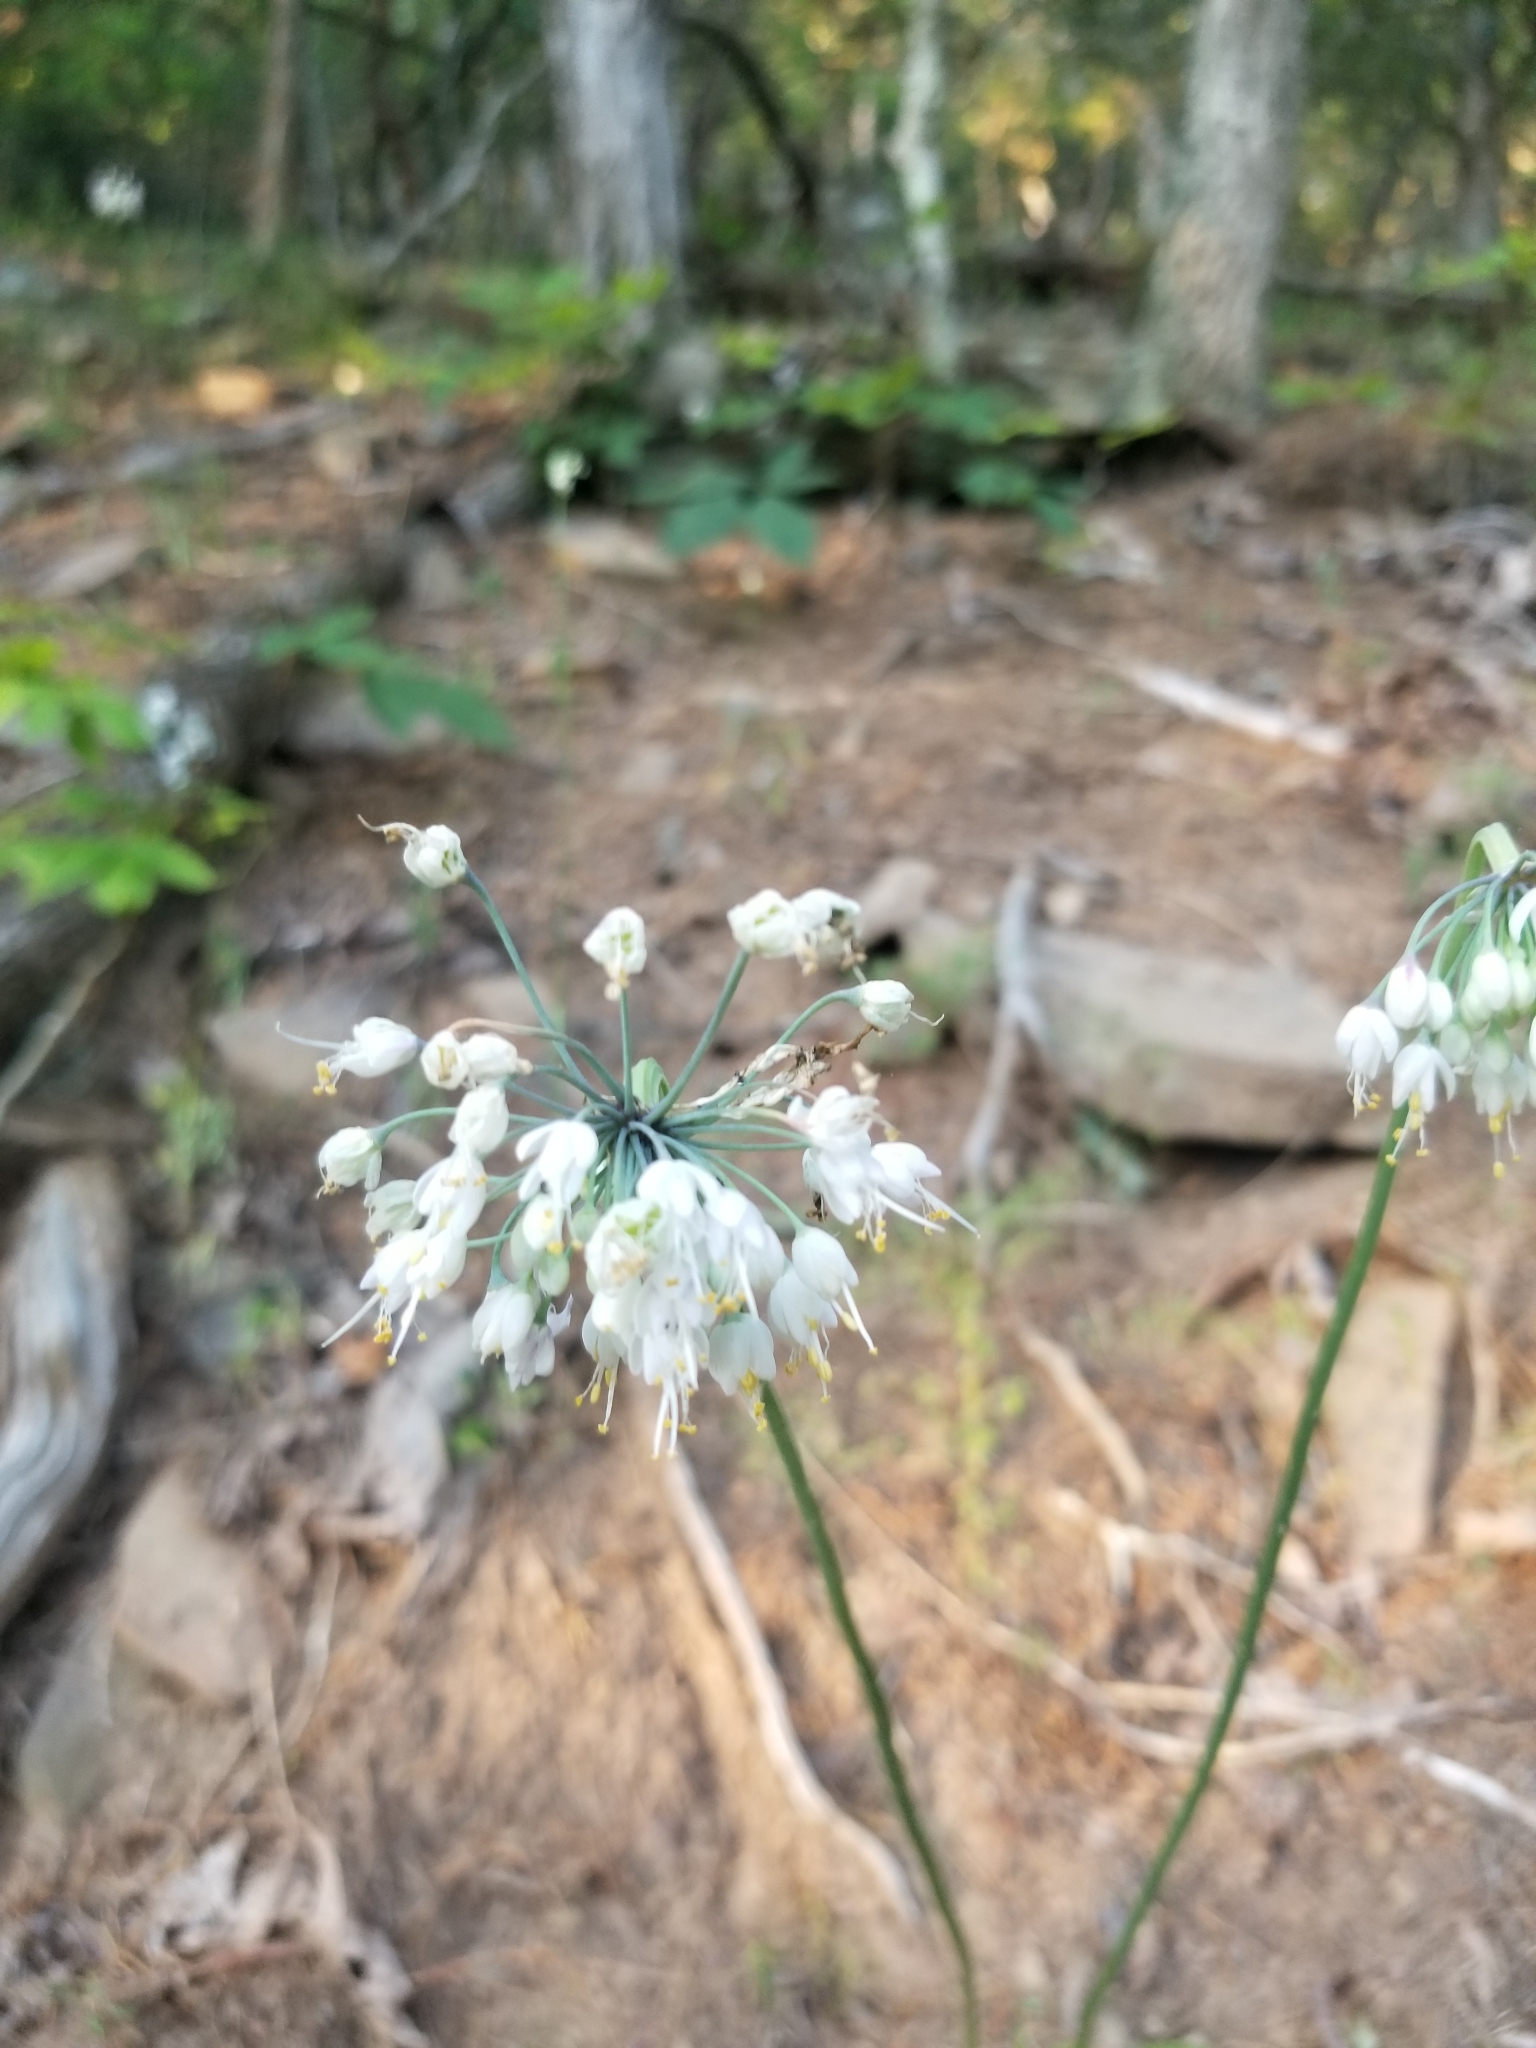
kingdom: Plantae
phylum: Tracheophyta
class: Liliopsida
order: Asparagales
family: Amaryllidaceae
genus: Allium
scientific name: Allium cernuum
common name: Nodding onion
